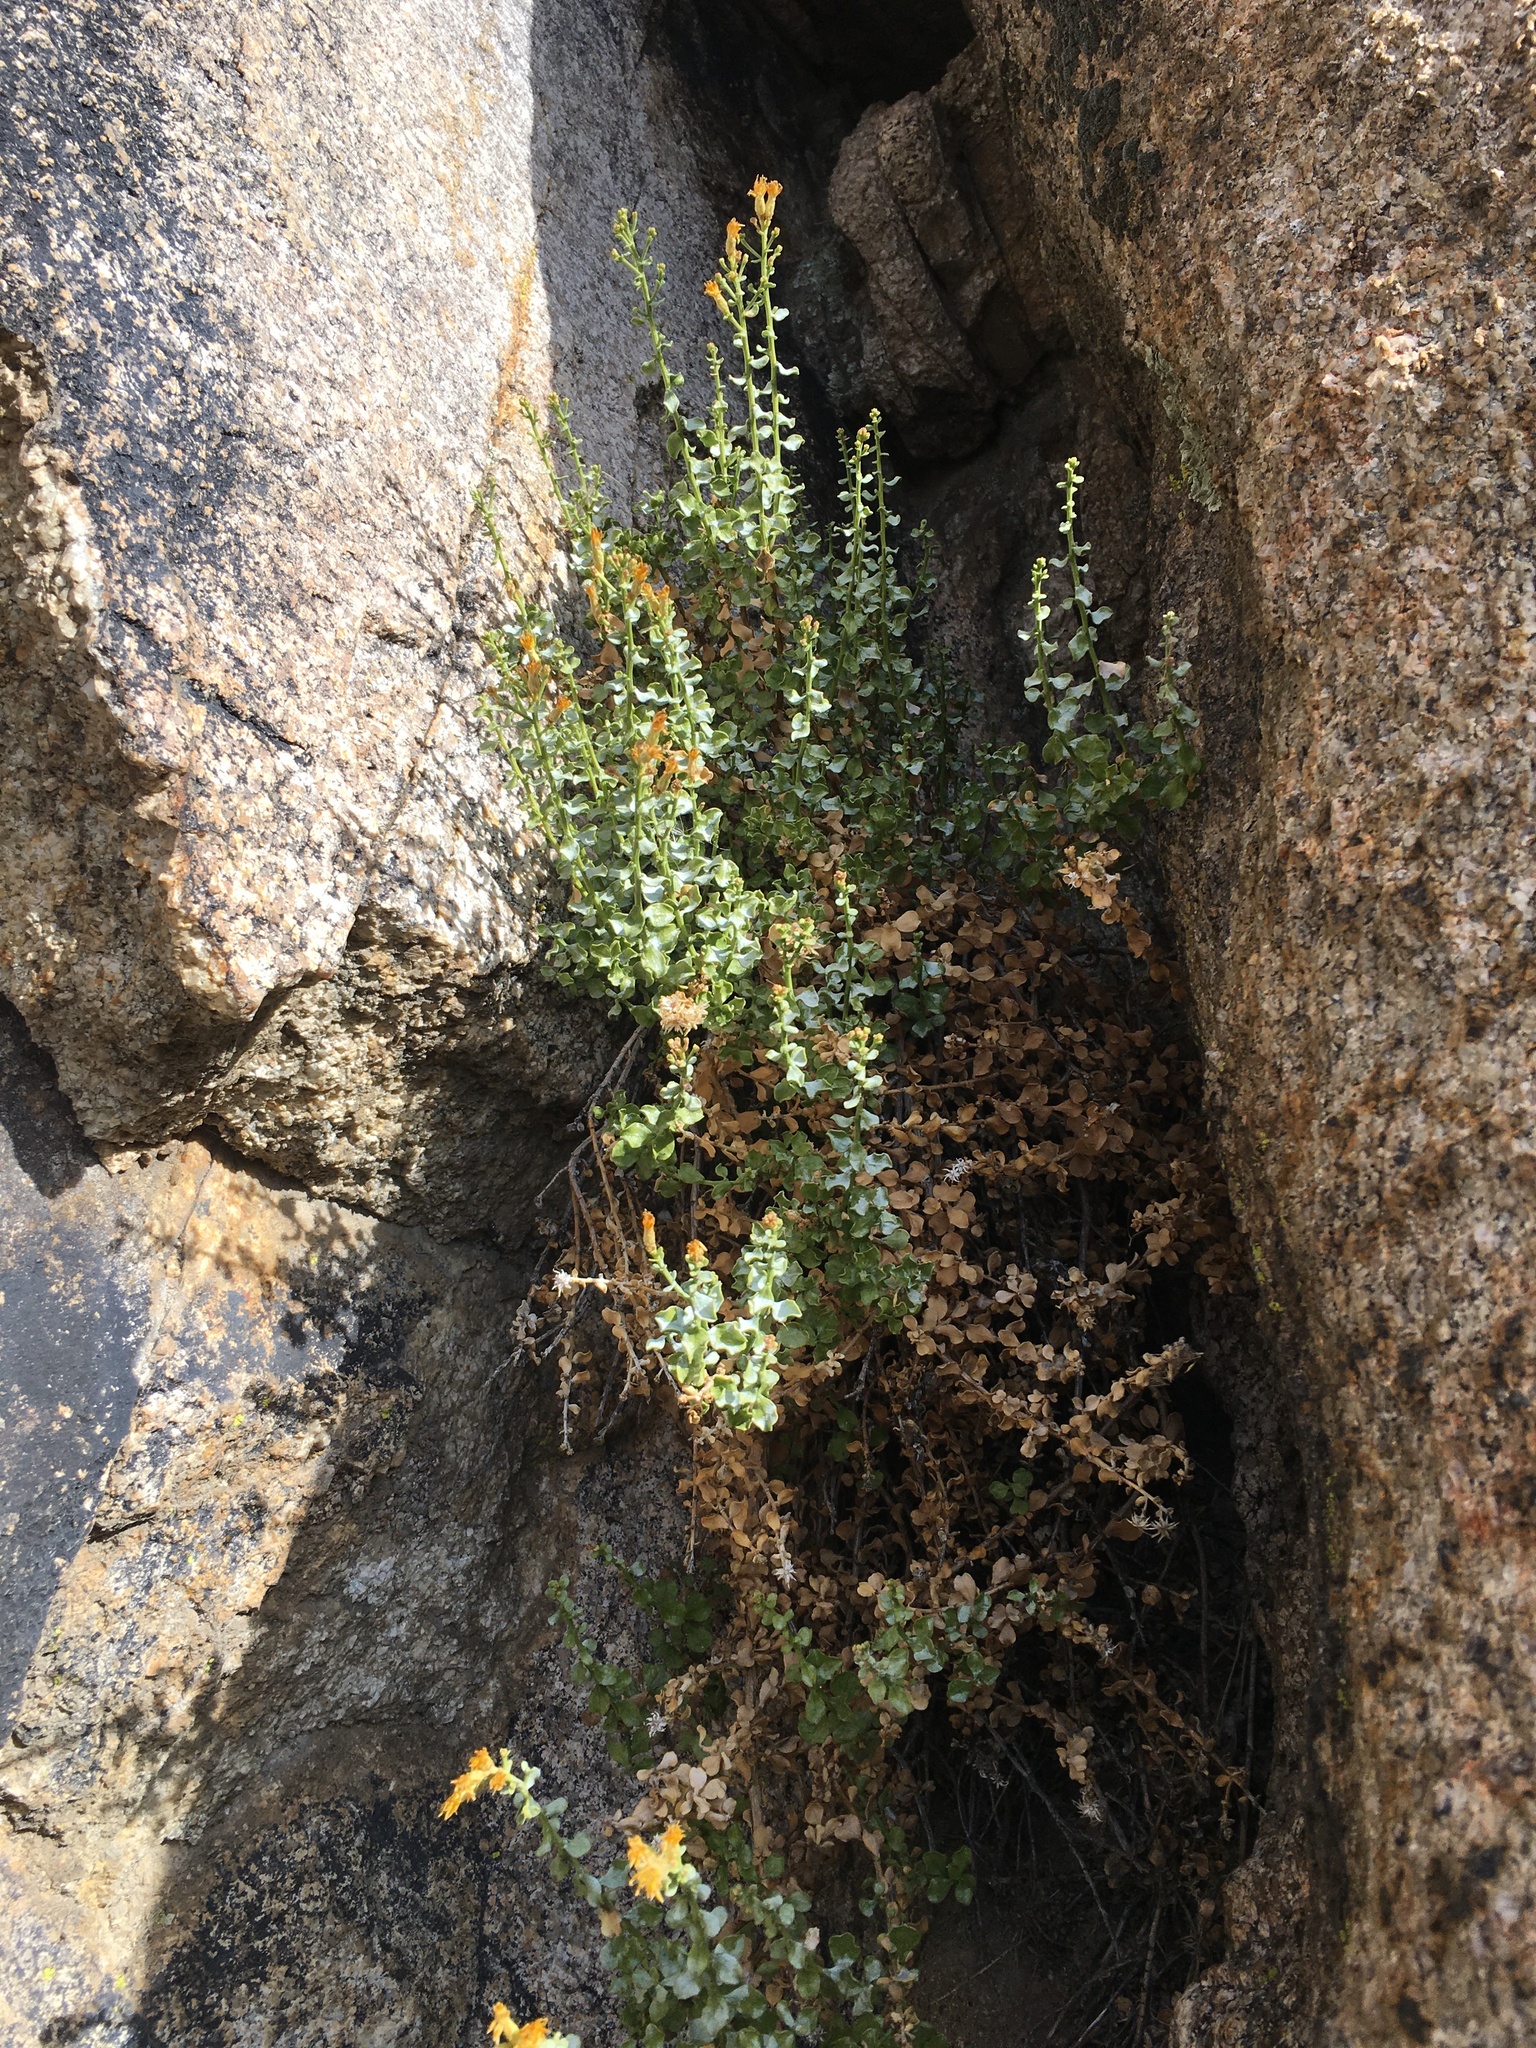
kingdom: Plantae
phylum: Tracheophyta
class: Magnoliopsida
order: Asterales
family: Asteraceae
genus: Ericameria
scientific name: Ericameria cuneata
